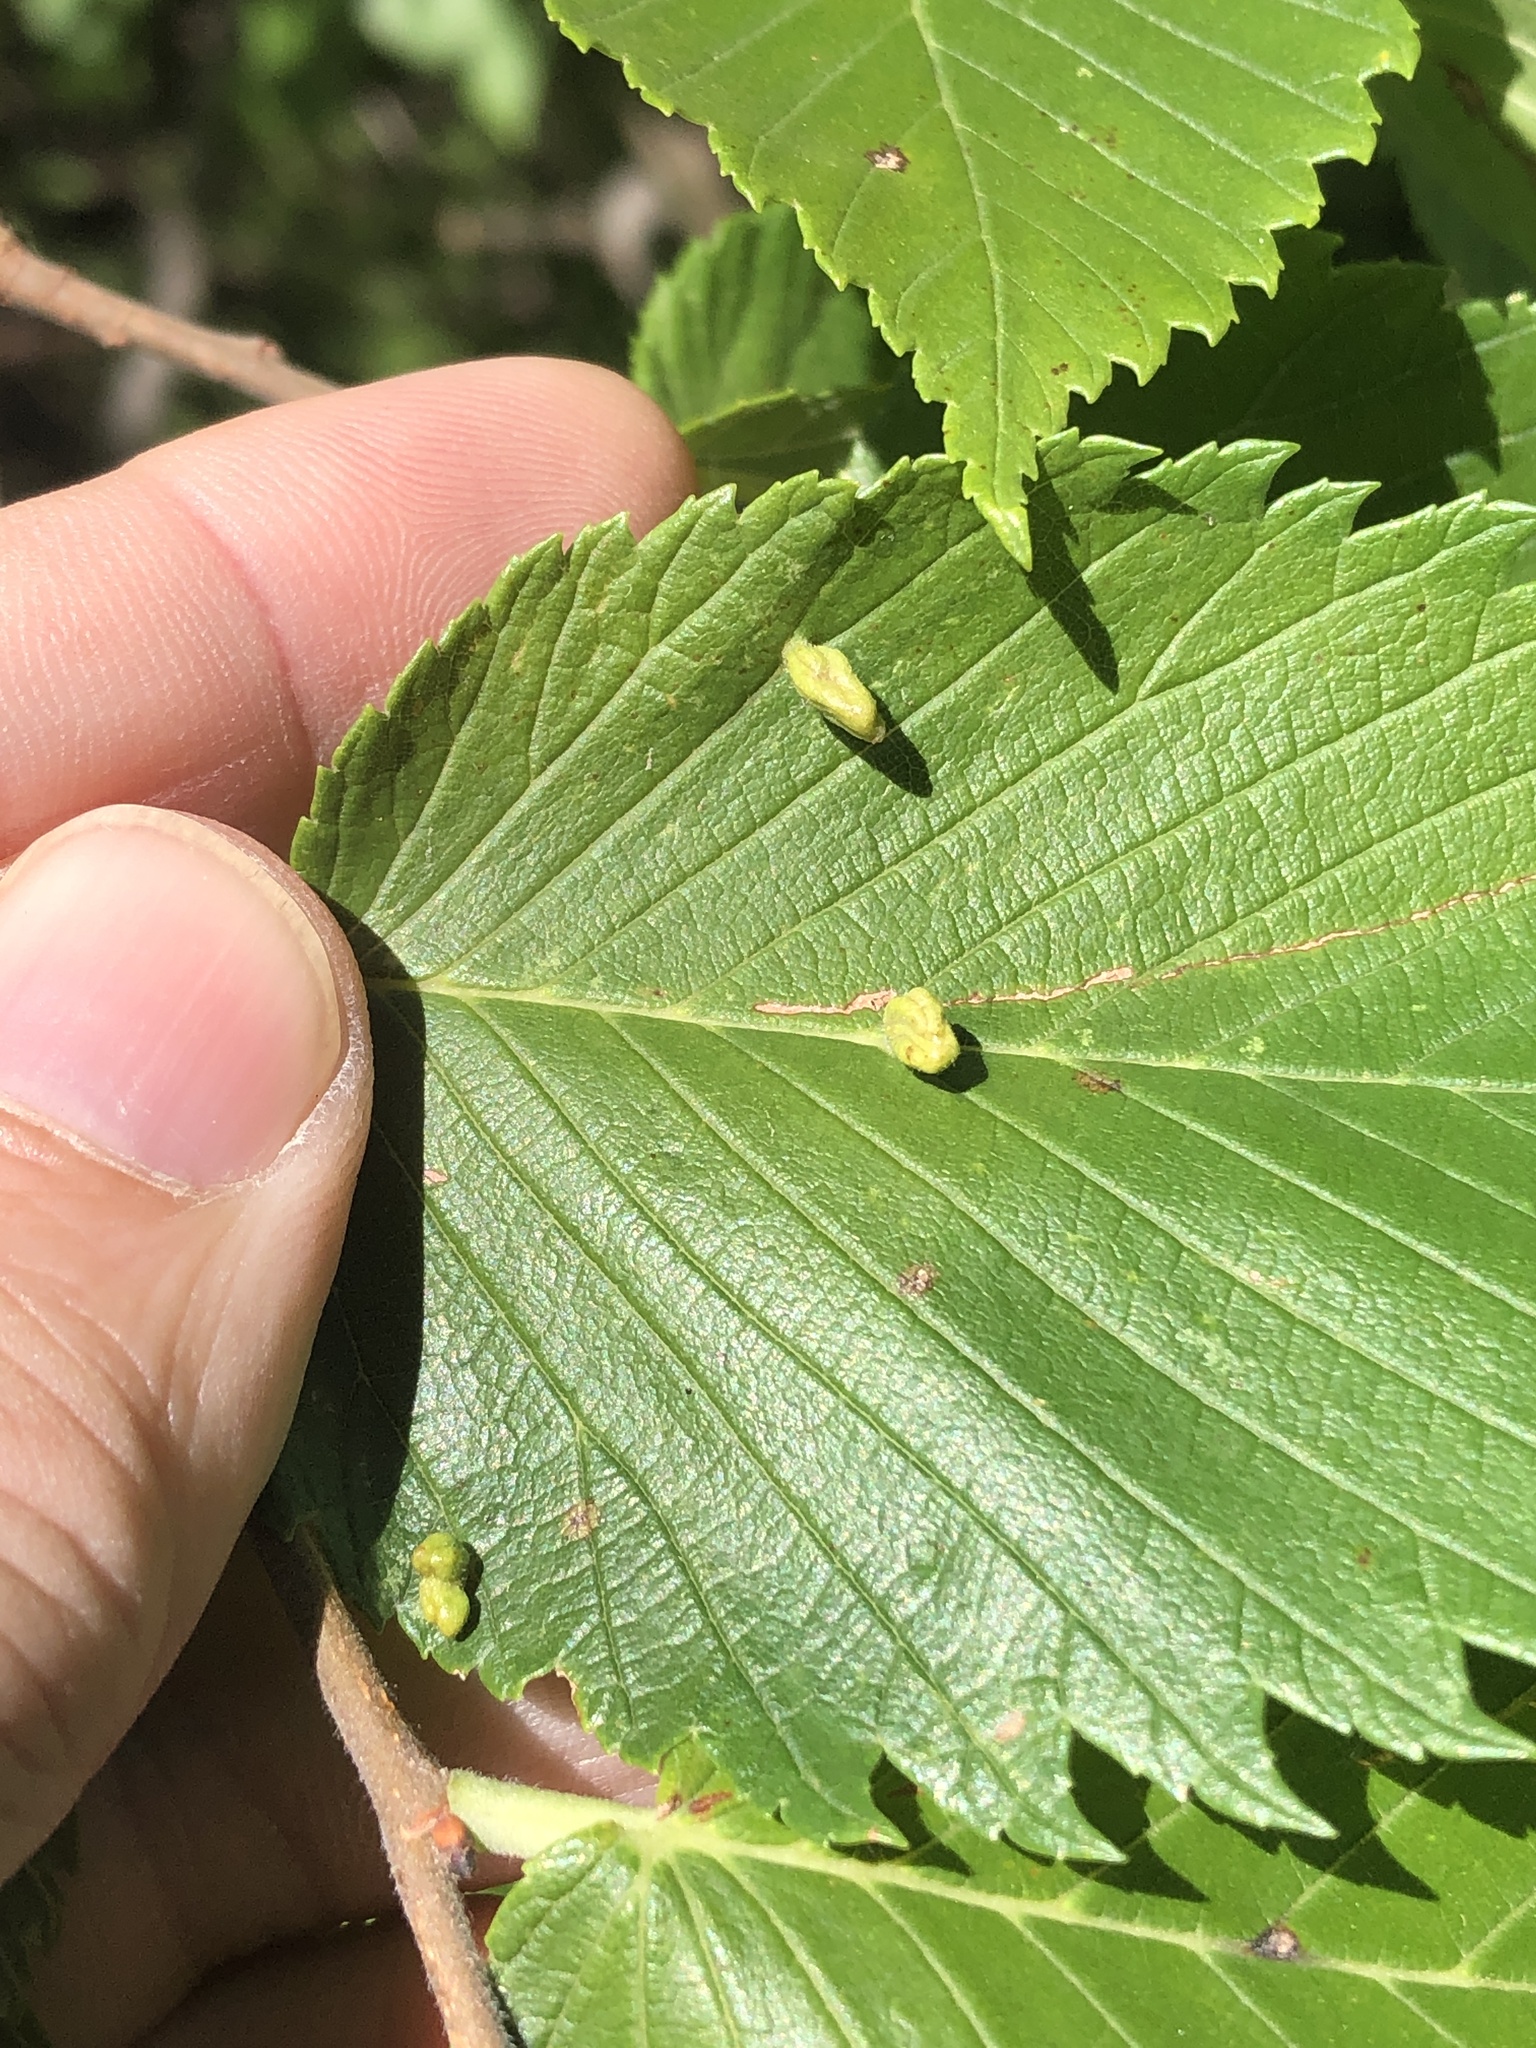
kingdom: Animalia
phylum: Arthropoda
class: Arachnida
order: Trombidiformes
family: Eriophyidae
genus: Aceria
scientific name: Aceria
